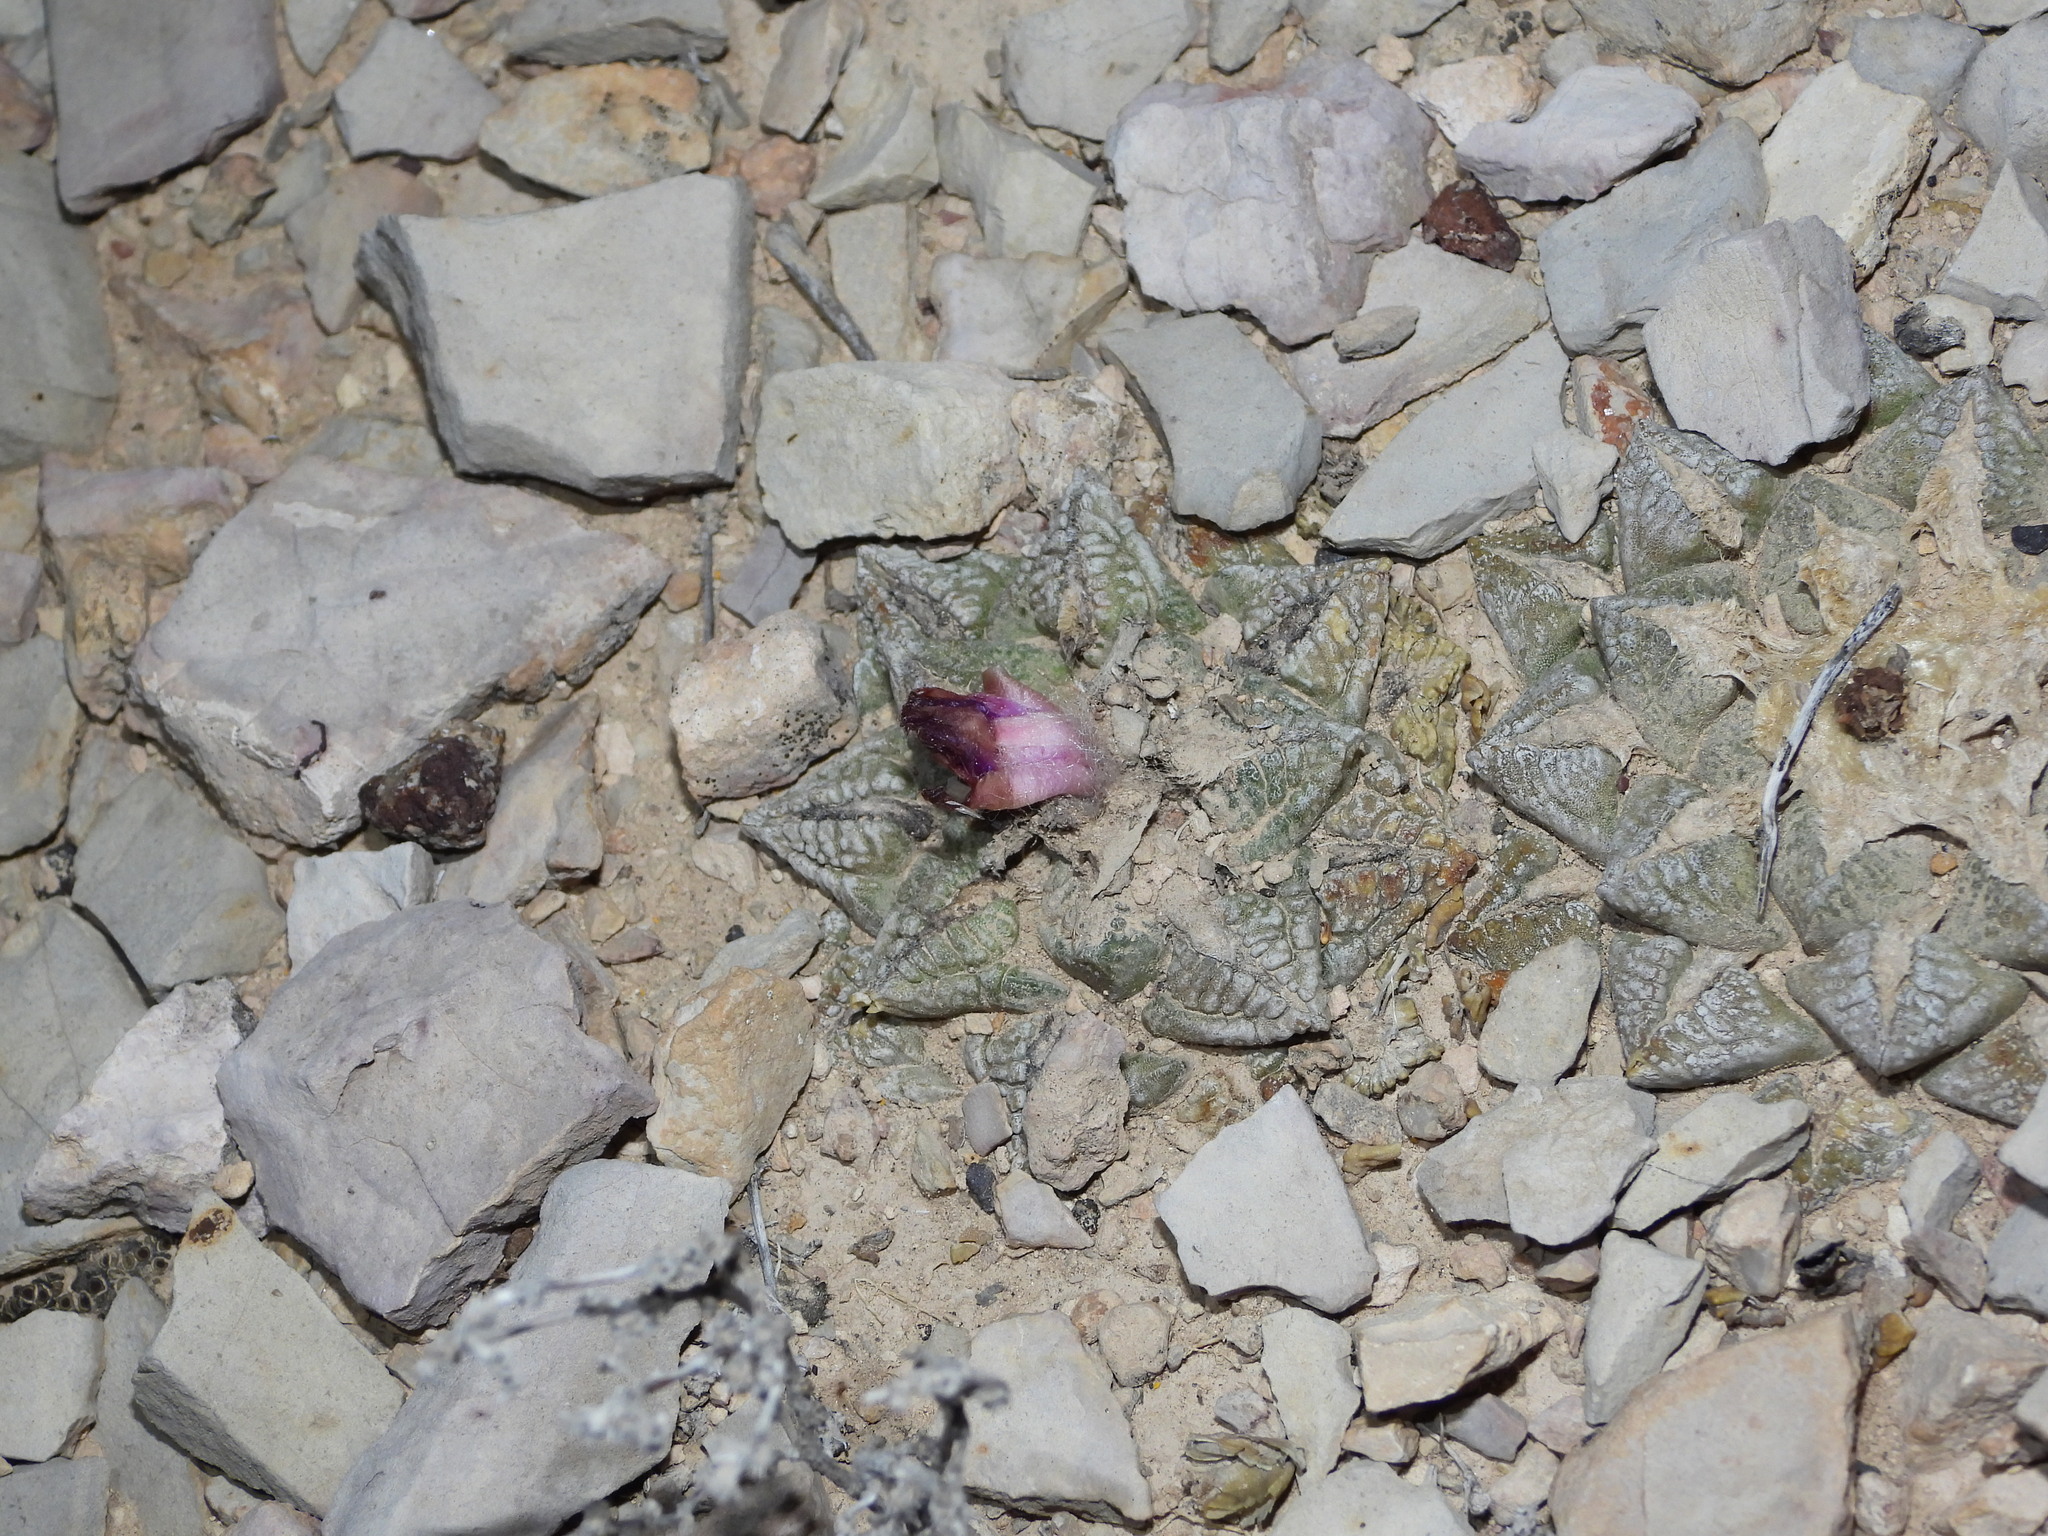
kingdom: Plantae
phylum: Tracheophyta
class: Magnoliopsida
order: Caryophyllales
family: Cactaceae
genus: Ariocarpus
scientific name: Ariocarpus fissuratus
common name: Chautle-living rock
